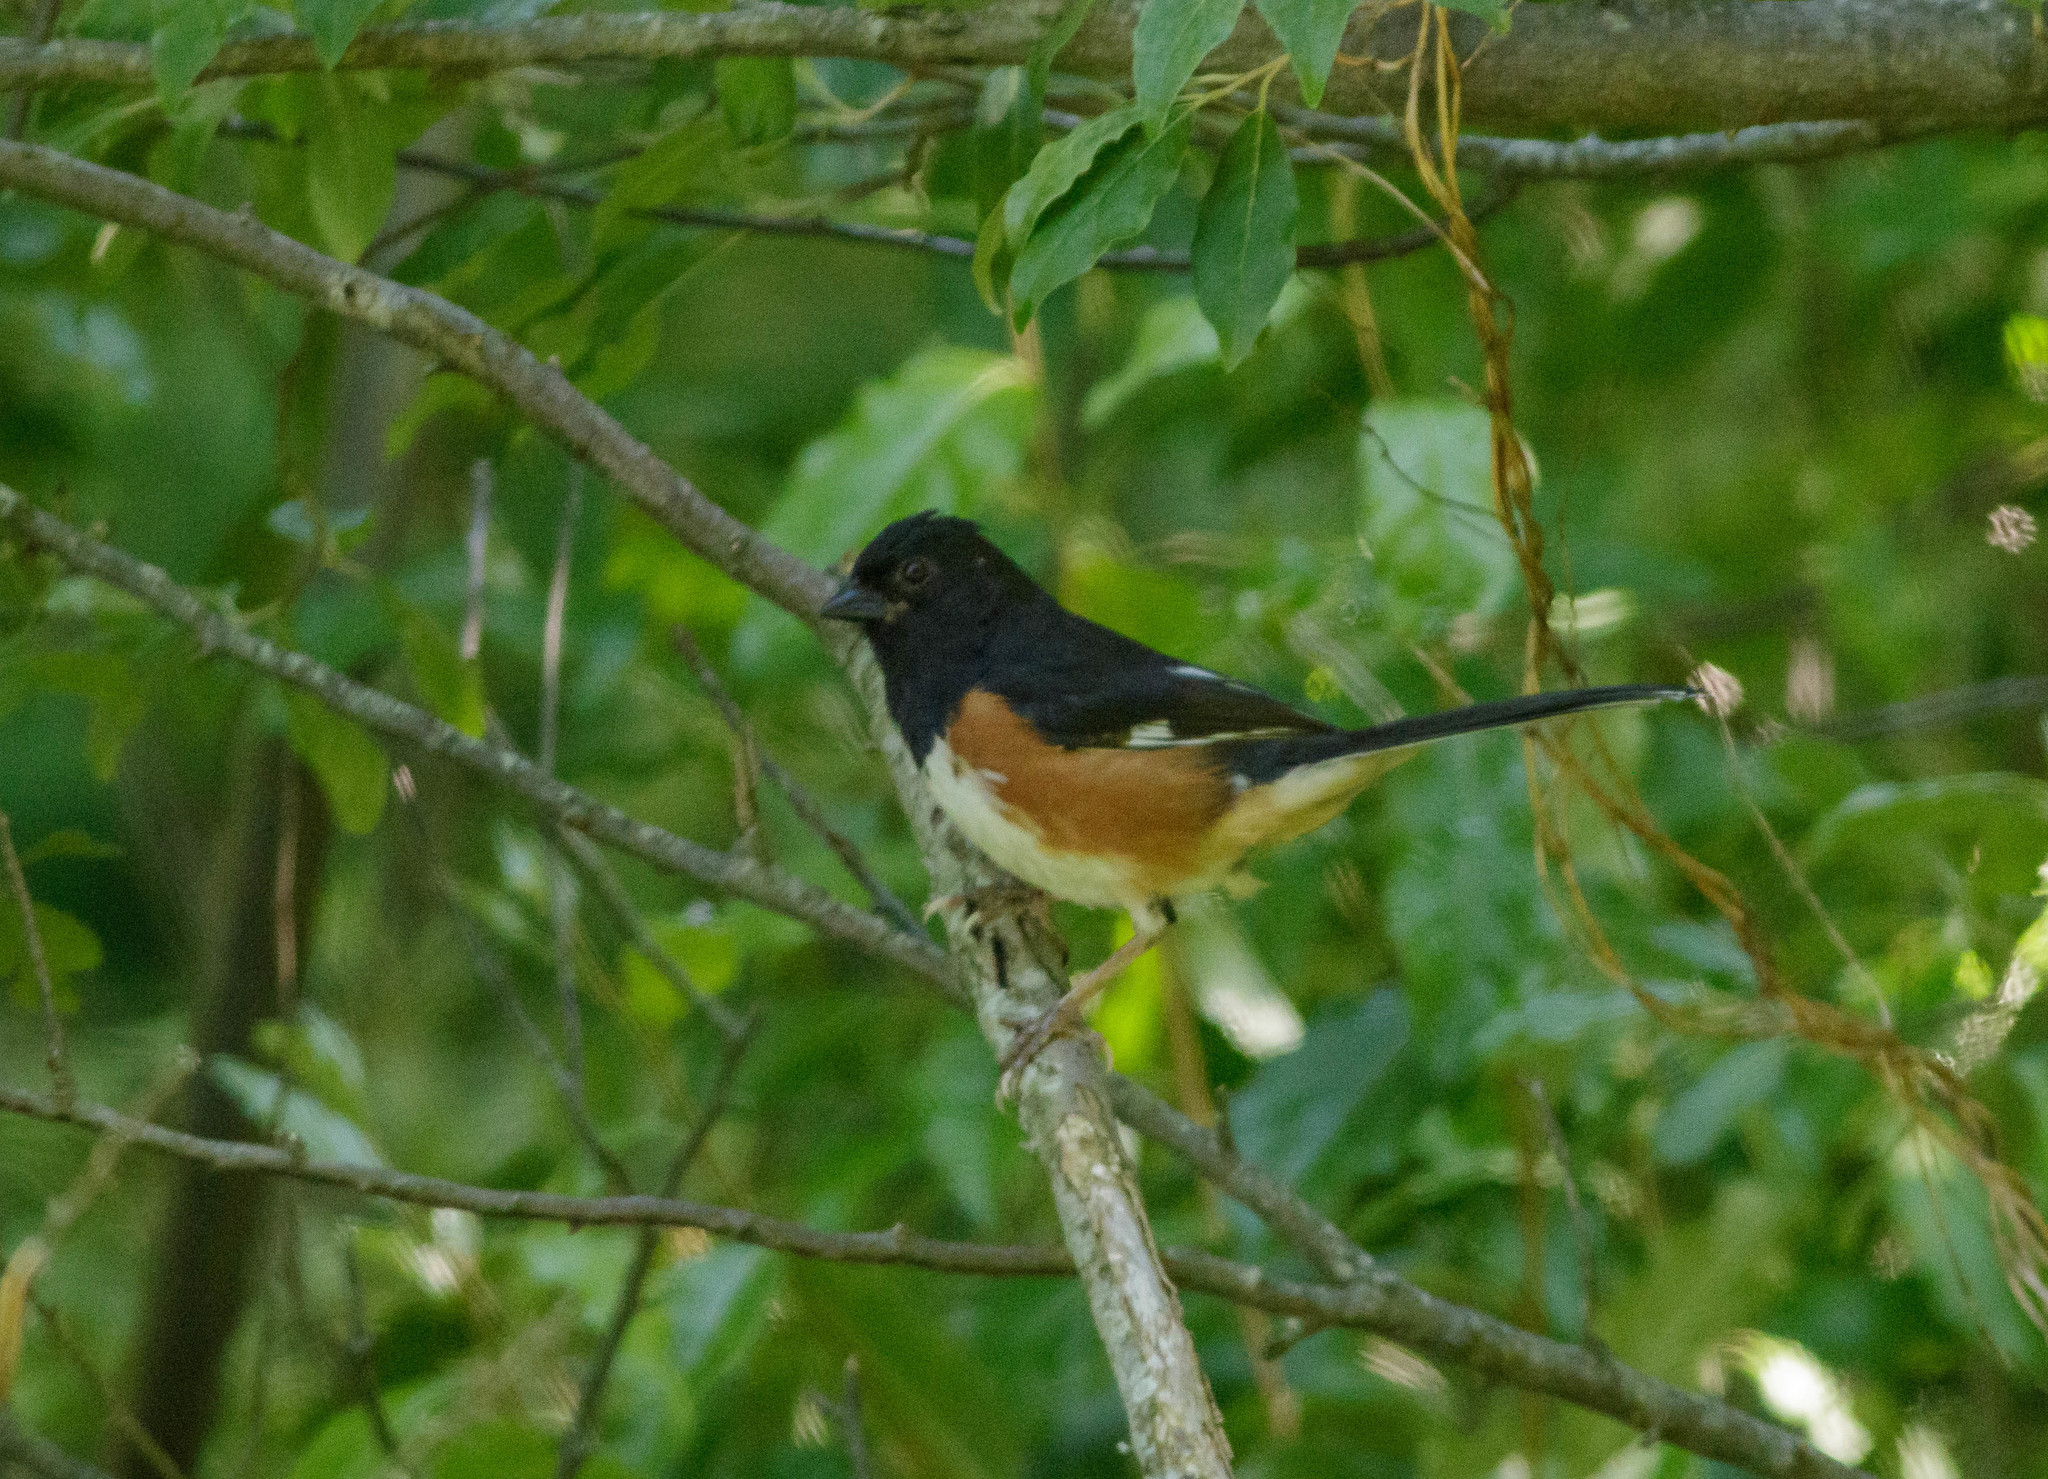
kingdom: Animalia
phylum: Chordata
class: Aves
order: Passeriformes
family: Passerellidae
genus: Pipilo
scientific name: Pipilo erythrophthalmus
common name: Eastern towhee
